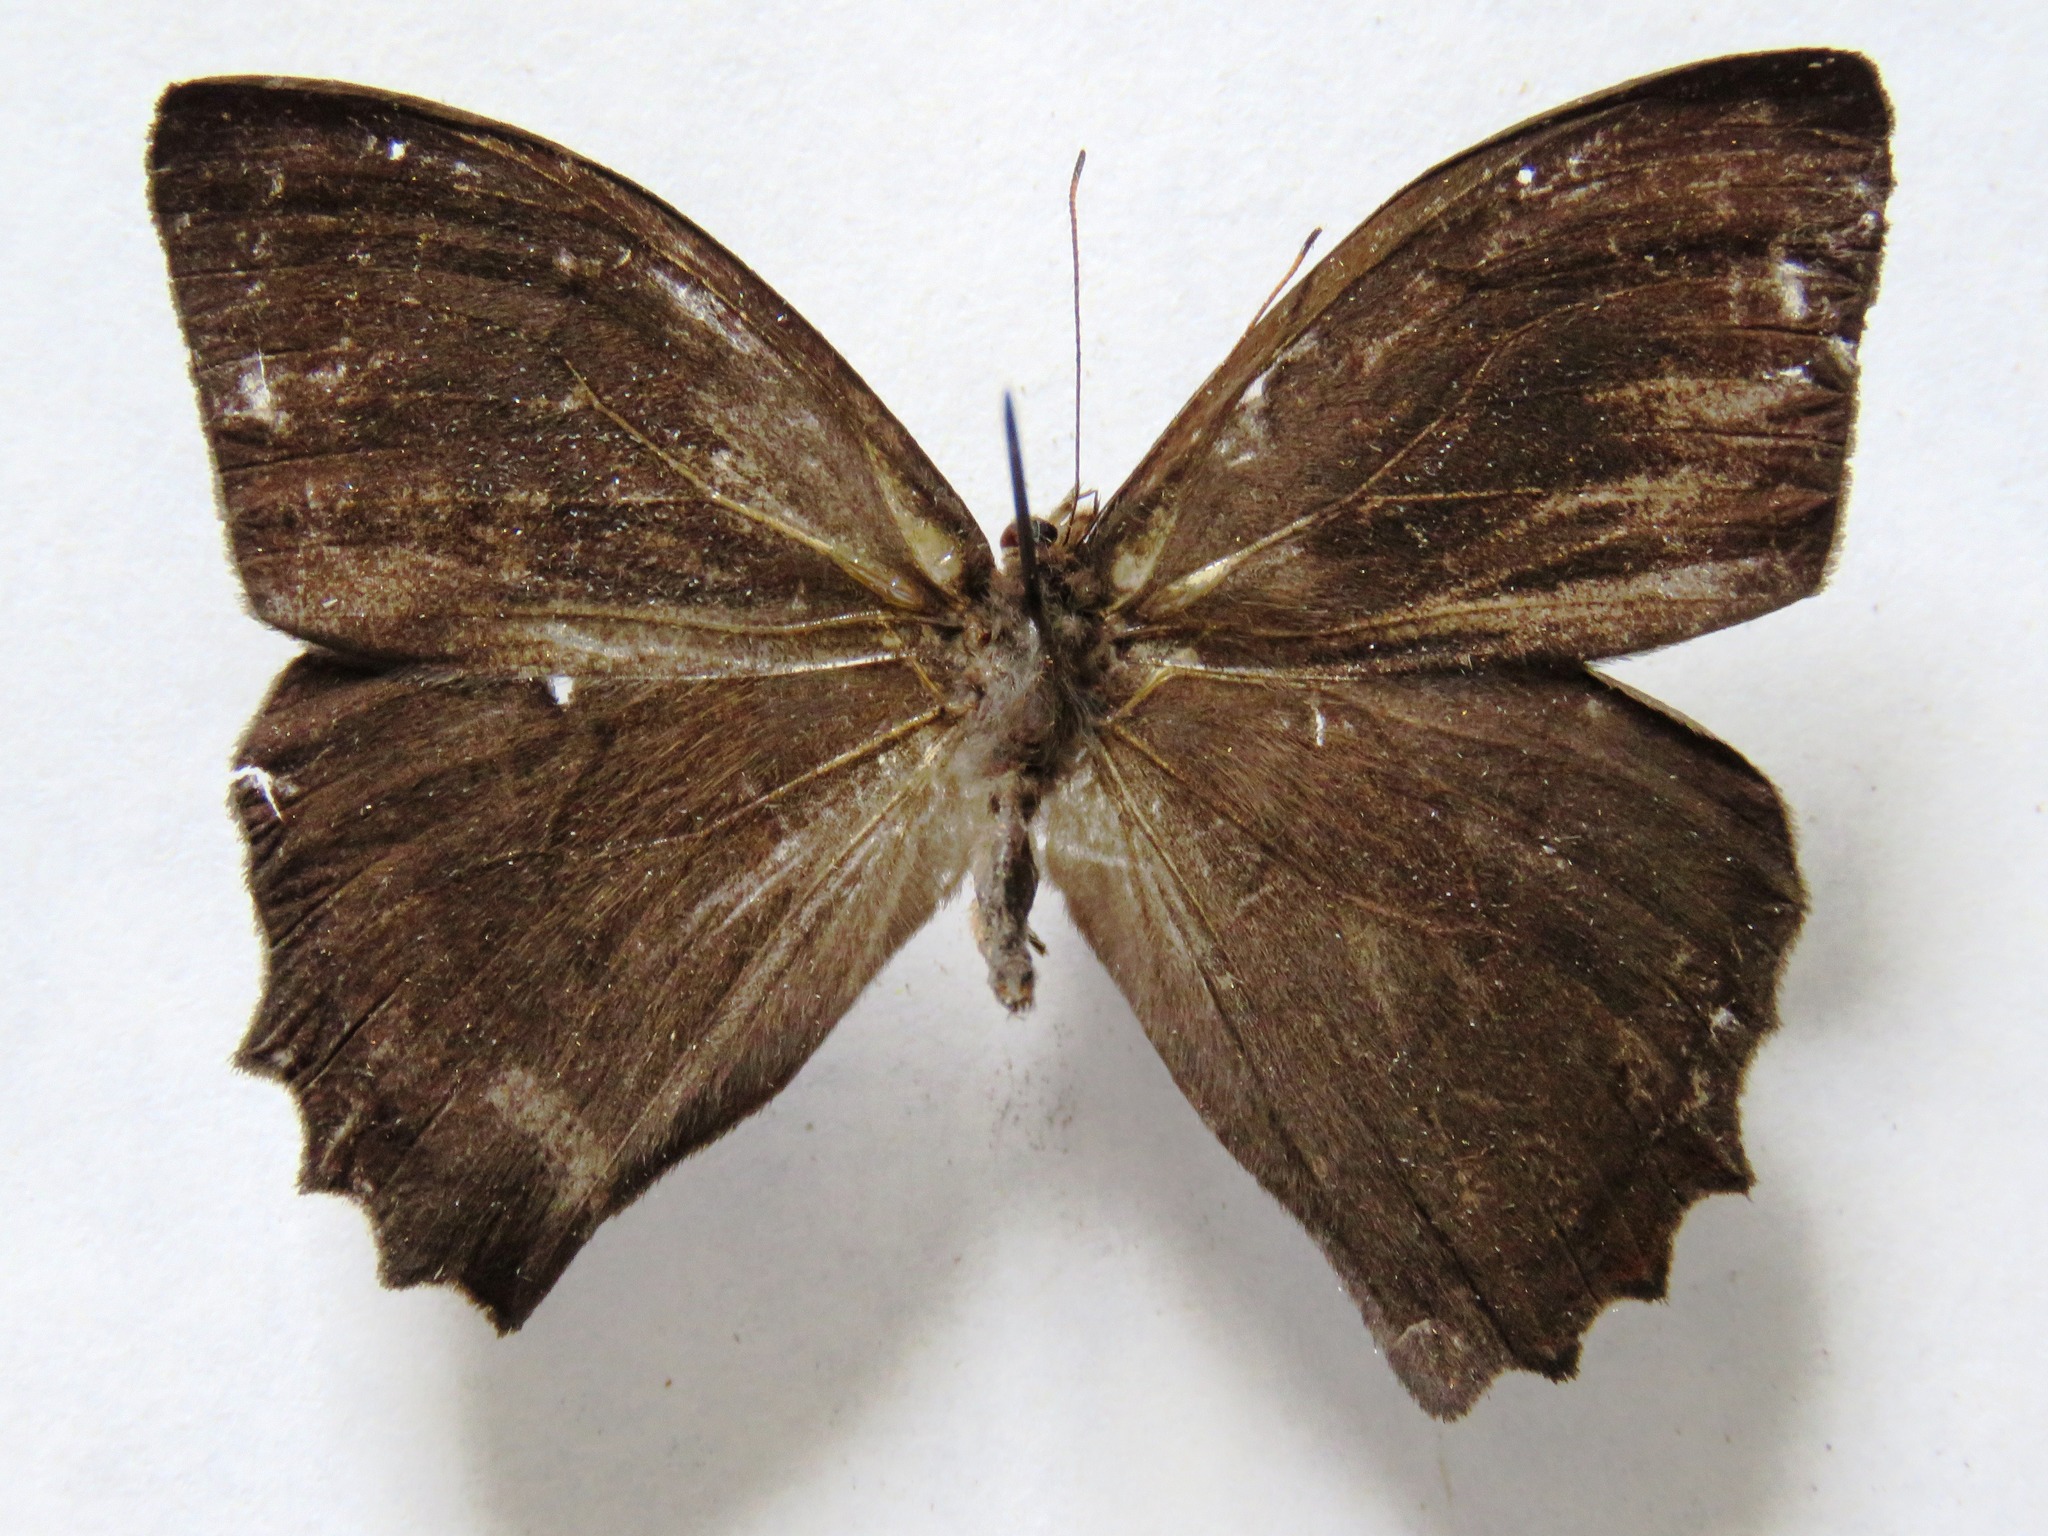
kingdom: Animalia
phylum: Arthropoda
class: Insecta
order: Lepidoptera
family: Nymphalidae
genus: Taygetis
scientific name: Taygetis salvini
